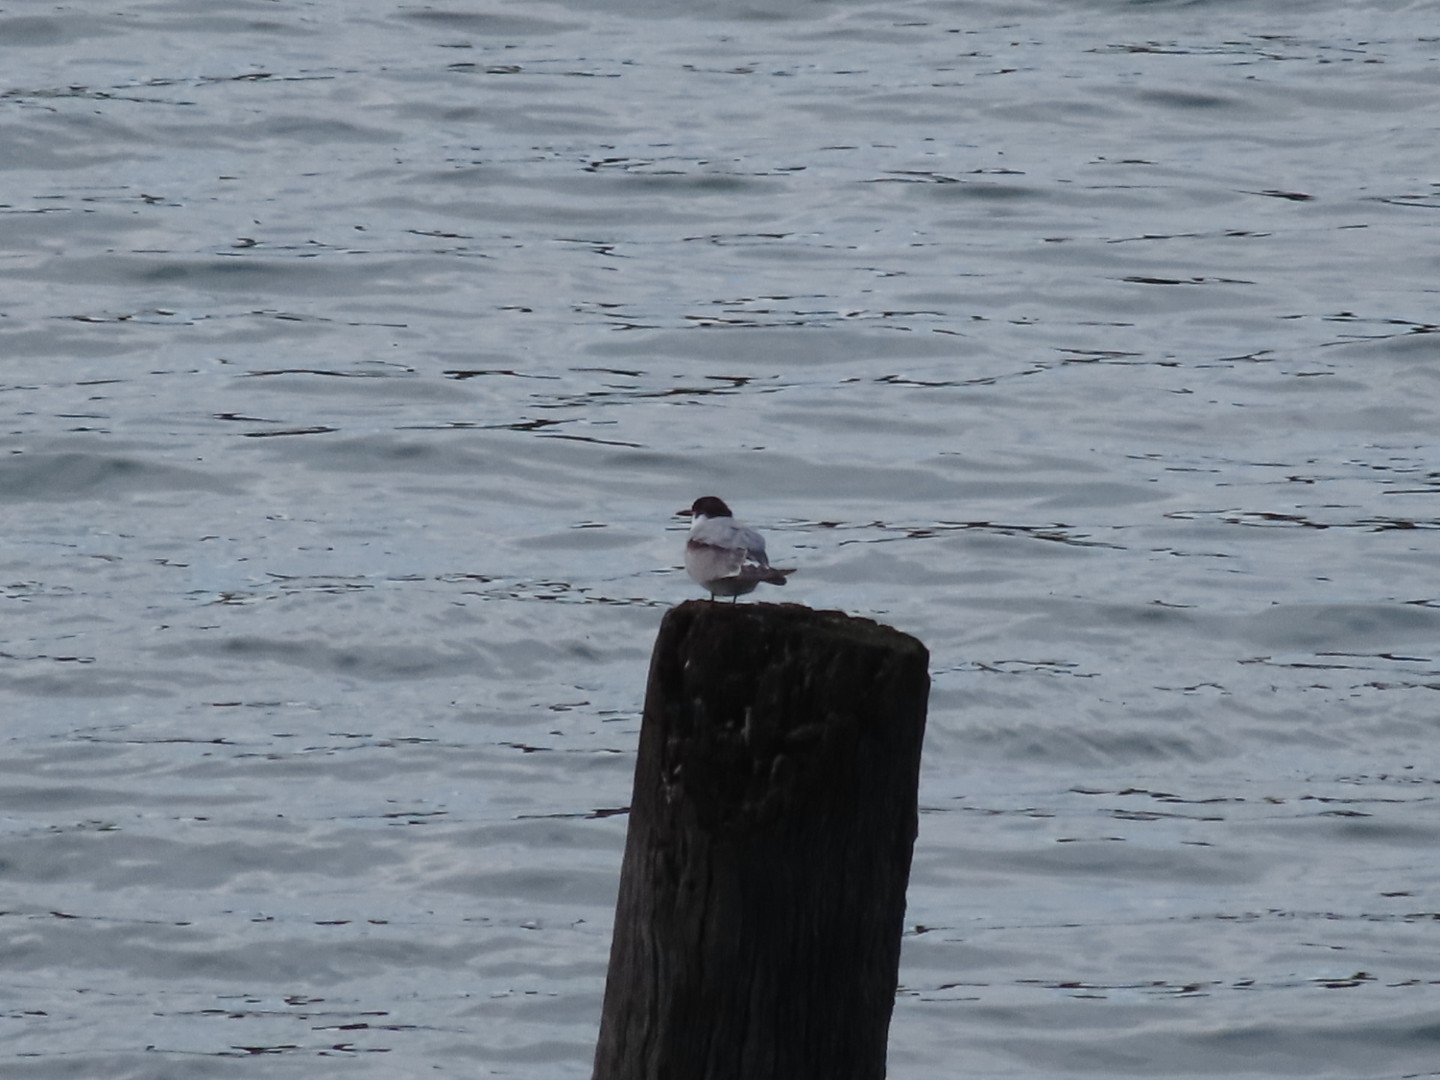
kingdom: Animalia
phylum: Chordata
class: Aves
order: Charadriiformes
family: Laridae
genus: Sterna
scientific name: Sterna striata
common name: White-fronted tern
